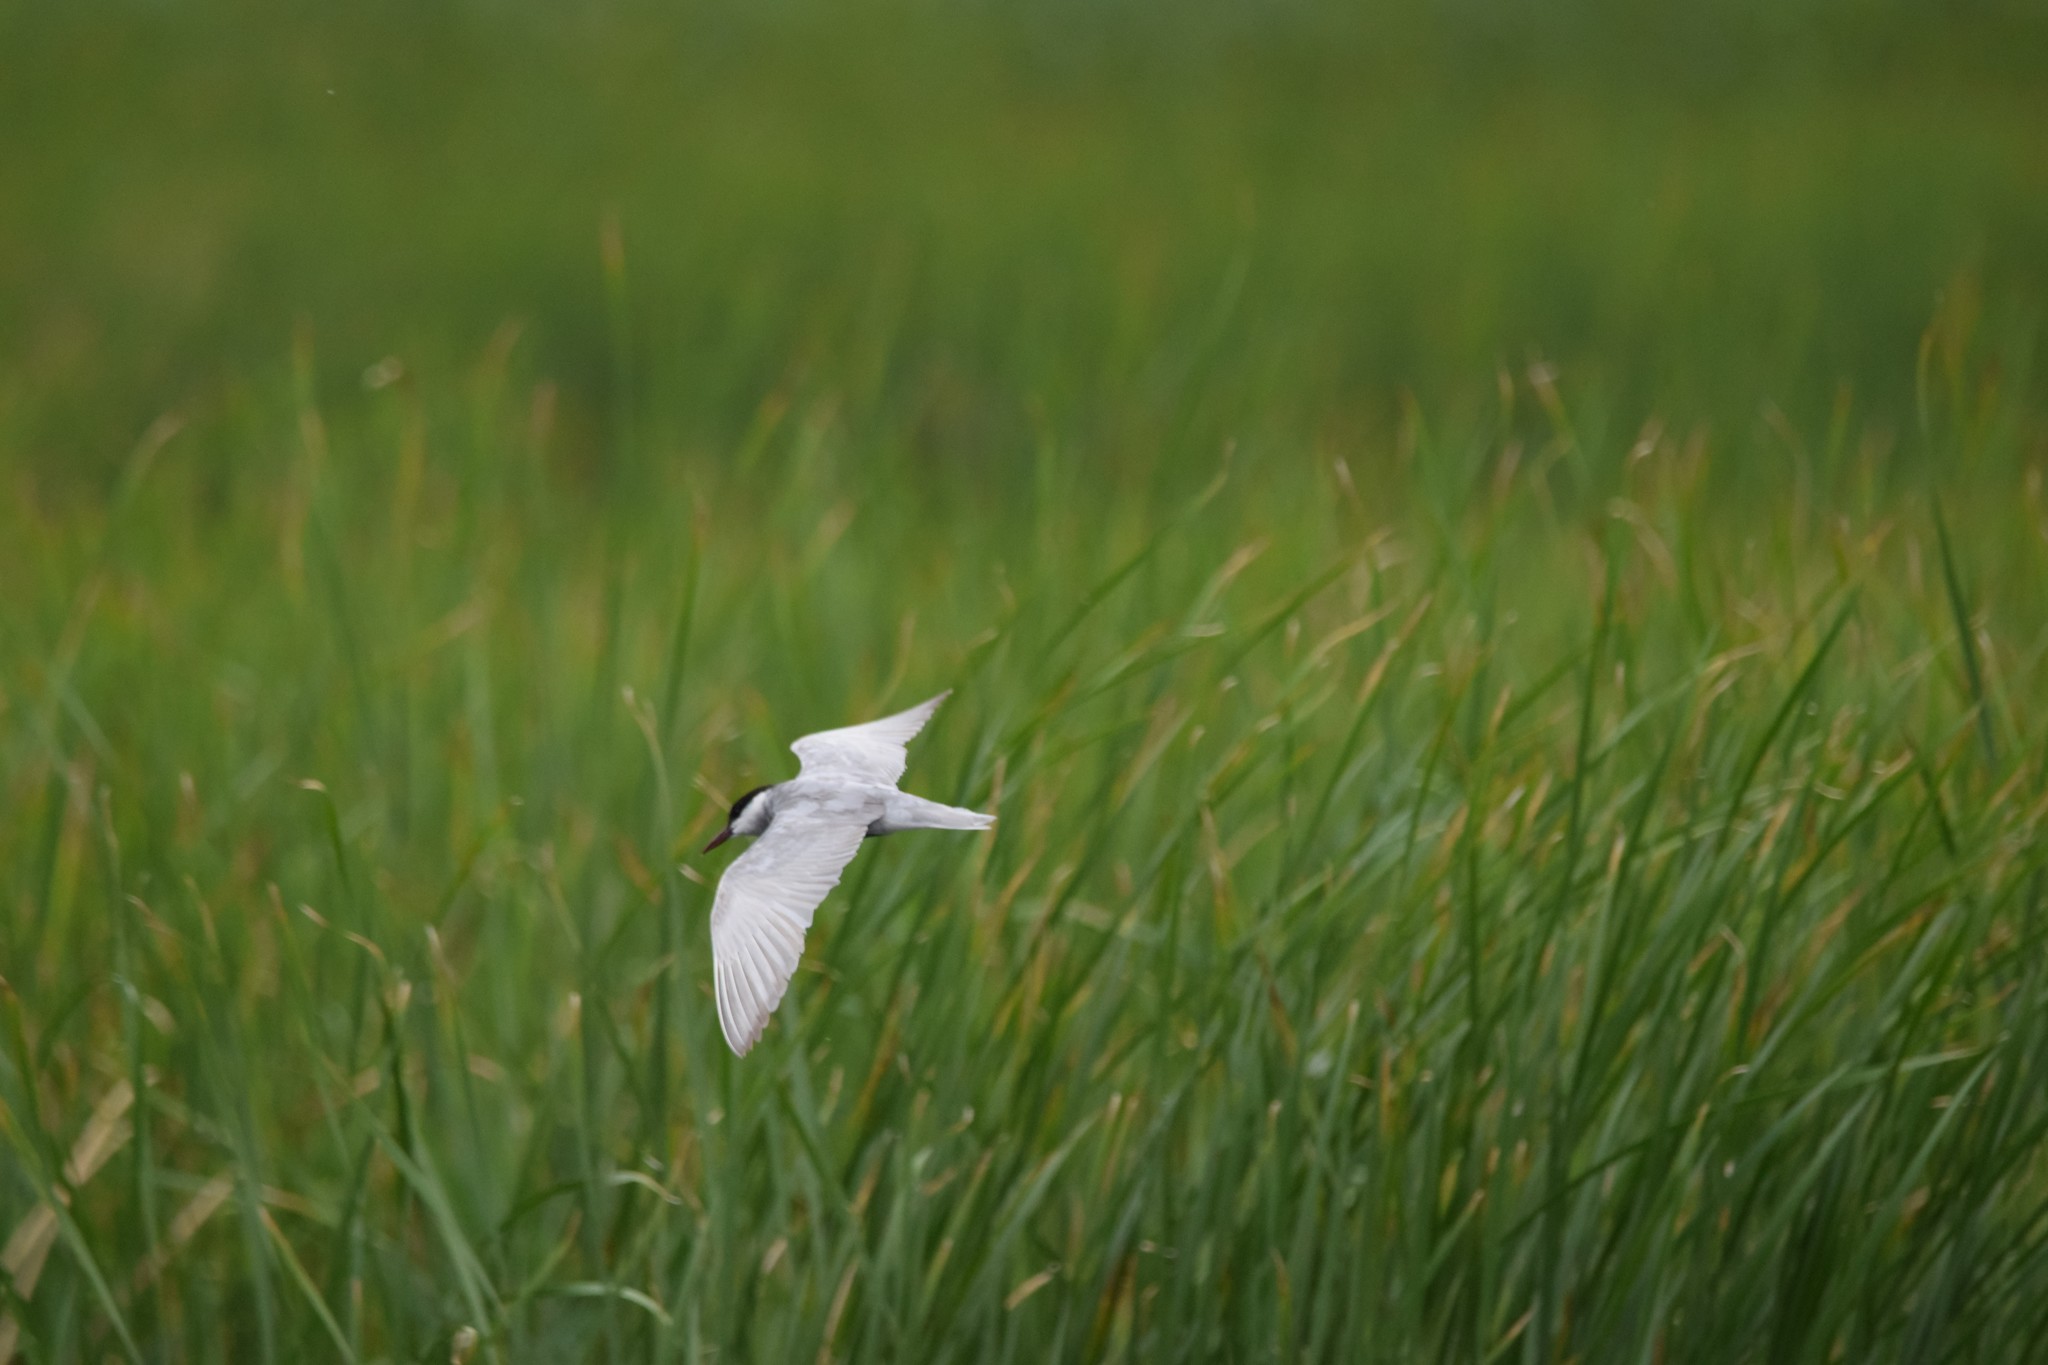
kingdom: Animalia
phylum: Chordata
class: Aves
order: Charadriiformes
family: Laridae
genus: Chlidonias
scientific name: Chlidonias hybrida
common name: Whiskered tern
